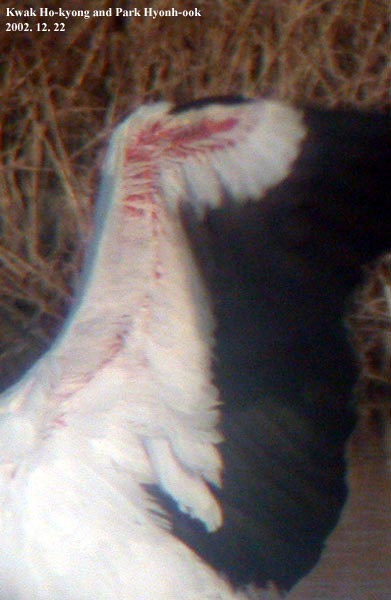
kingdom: Animalia
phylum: Chordata
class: Aves
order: Ciconiiformes
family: Ciconiidae
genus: Ciconia
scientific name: Ciconia boyciana
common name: Oriental stork
